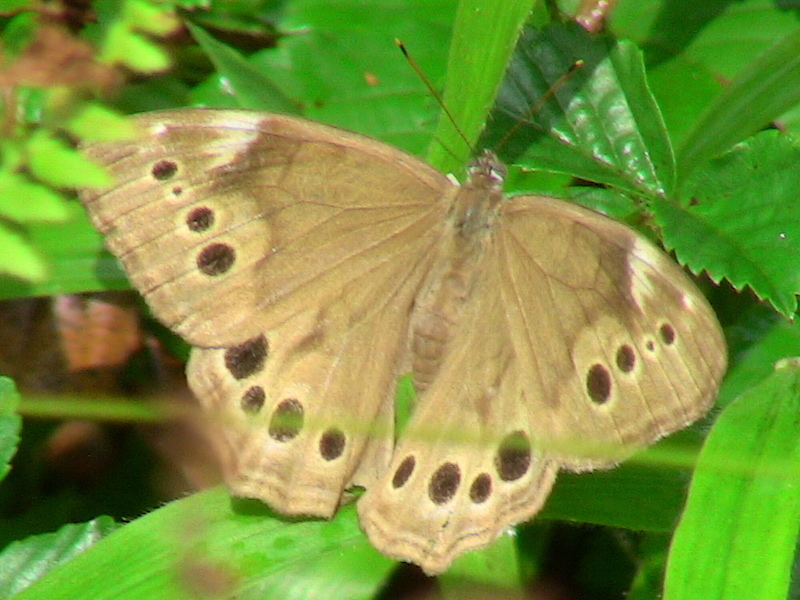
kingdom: Animalia
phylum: Arthropoda
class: Insecta
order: Lepidoptera
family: Nymphalidae
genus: Lethe
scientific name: Lethe anthedon
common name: Northern pearly-eye
